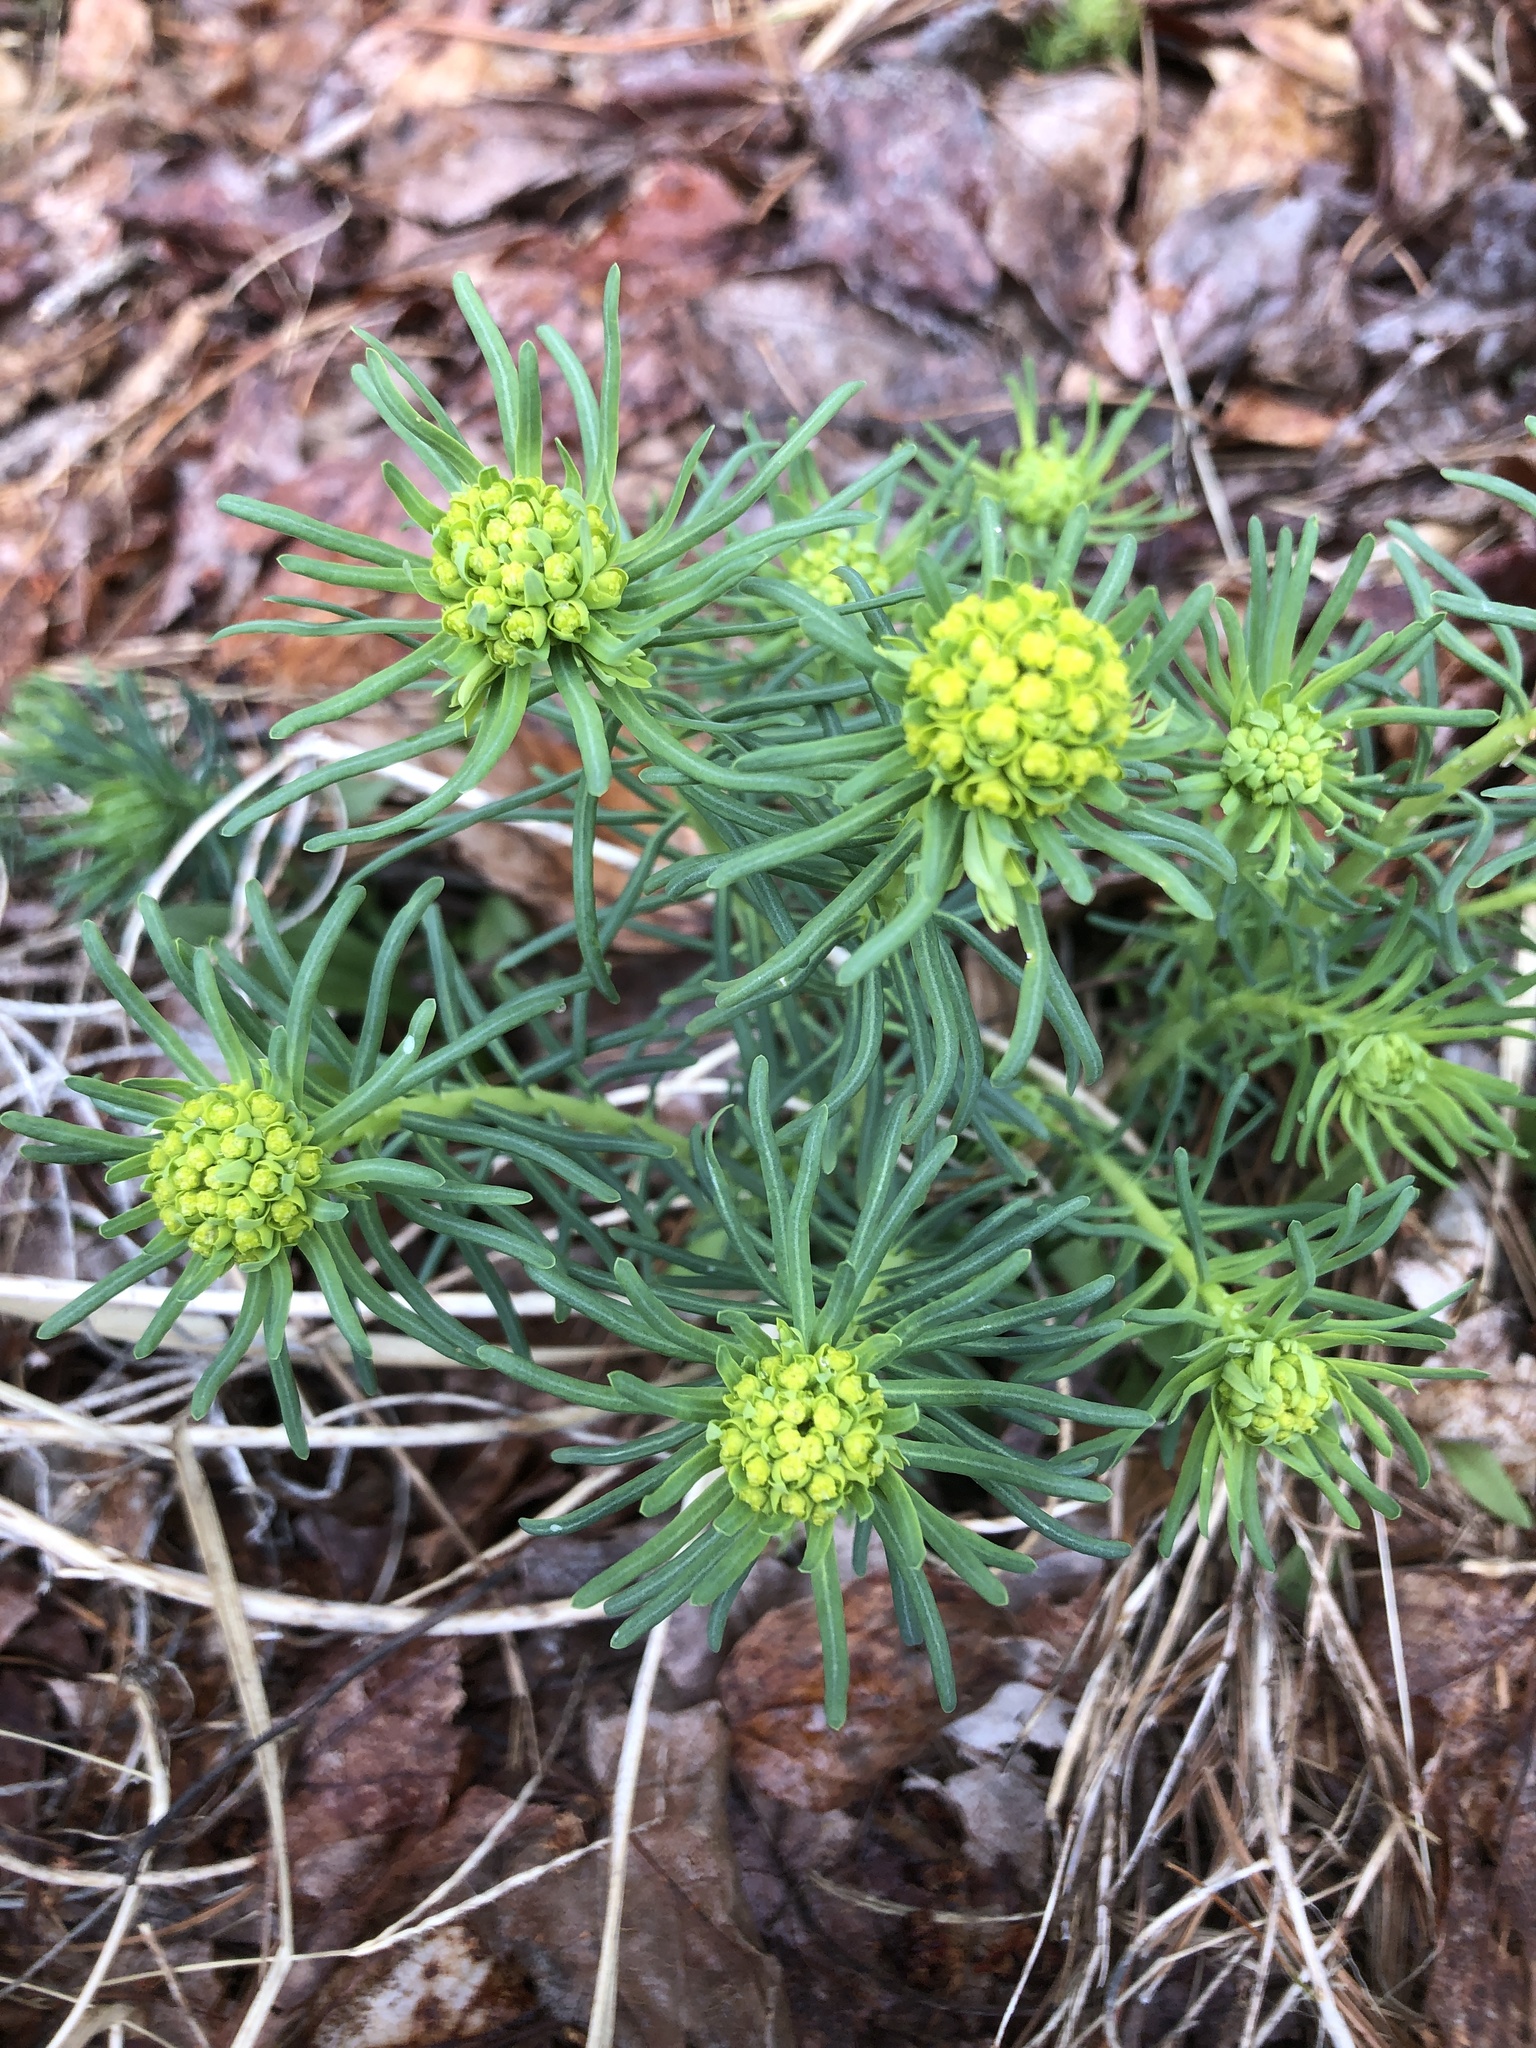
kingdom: Plantae
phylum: Tracheophyta
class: Magnoliopsida
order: Malpighiales
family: Euphorbiaceae
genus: Euphorbia
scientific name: Euphorbia cyparissias
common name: Cypress spurge
